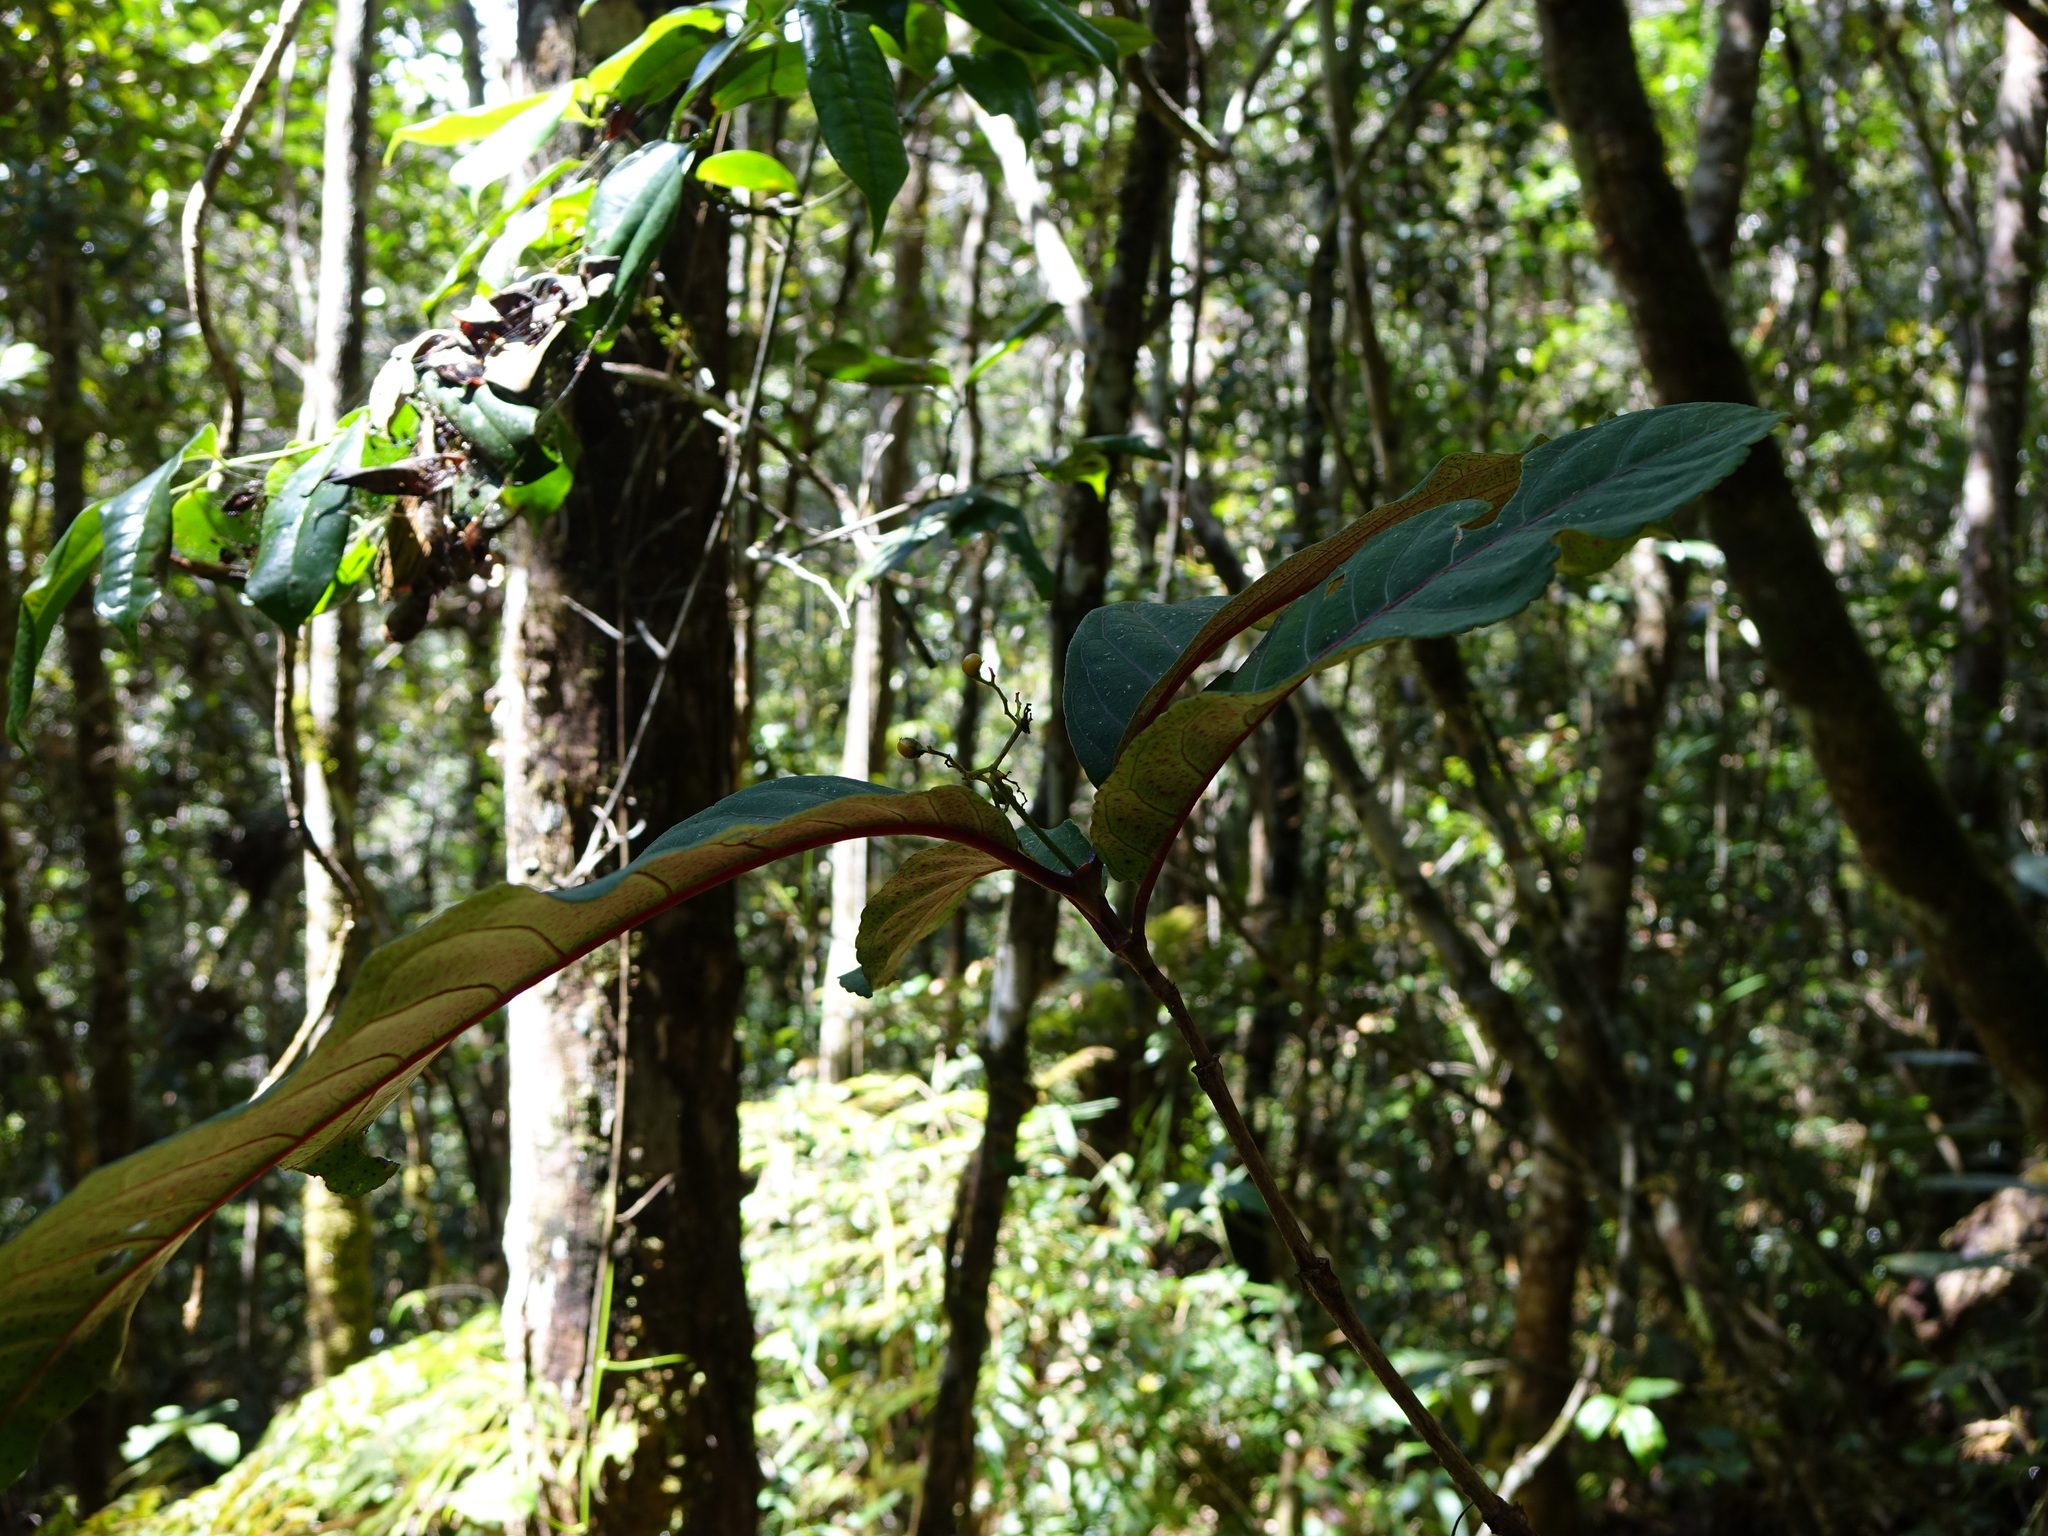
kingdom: Plantae
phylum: Tracheophyta
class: Magnoliopsida
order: Malpighiales
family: Hypericaceae
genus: Psorospermum
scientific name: Psorospermum ferrovestitum
